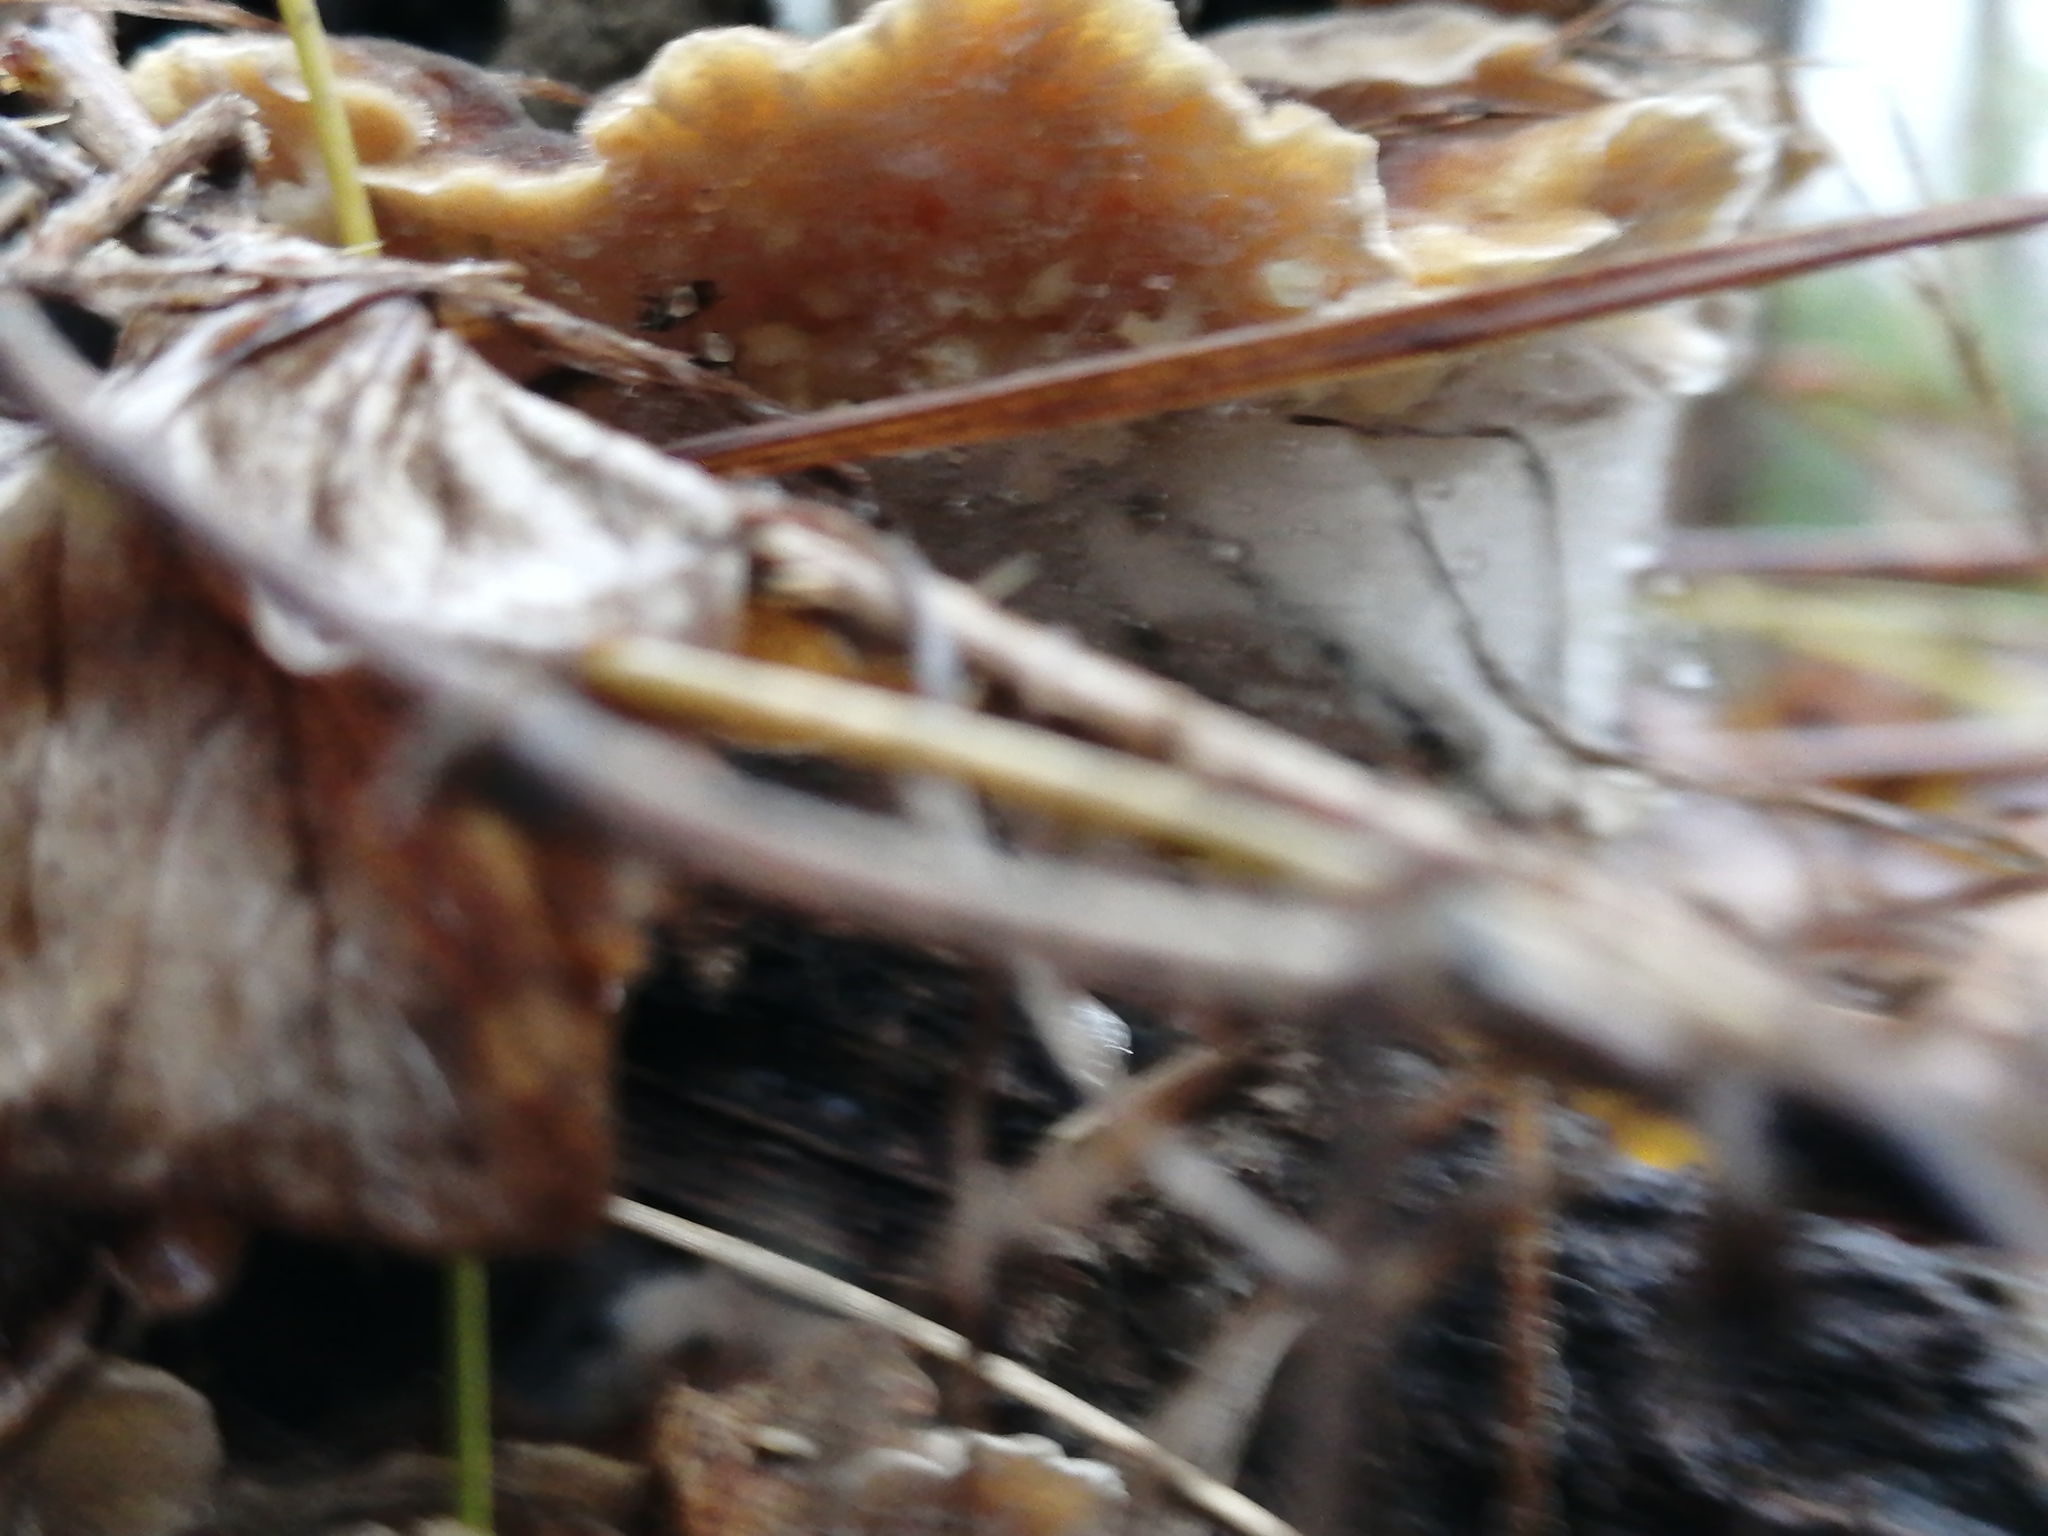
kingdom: Fungi
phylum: Basidiomycota
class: Agaricomycetes
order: Polyporales
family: Polyporaceae
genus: Trametes
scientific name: Trametes ochracea
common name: Ochre bracket
